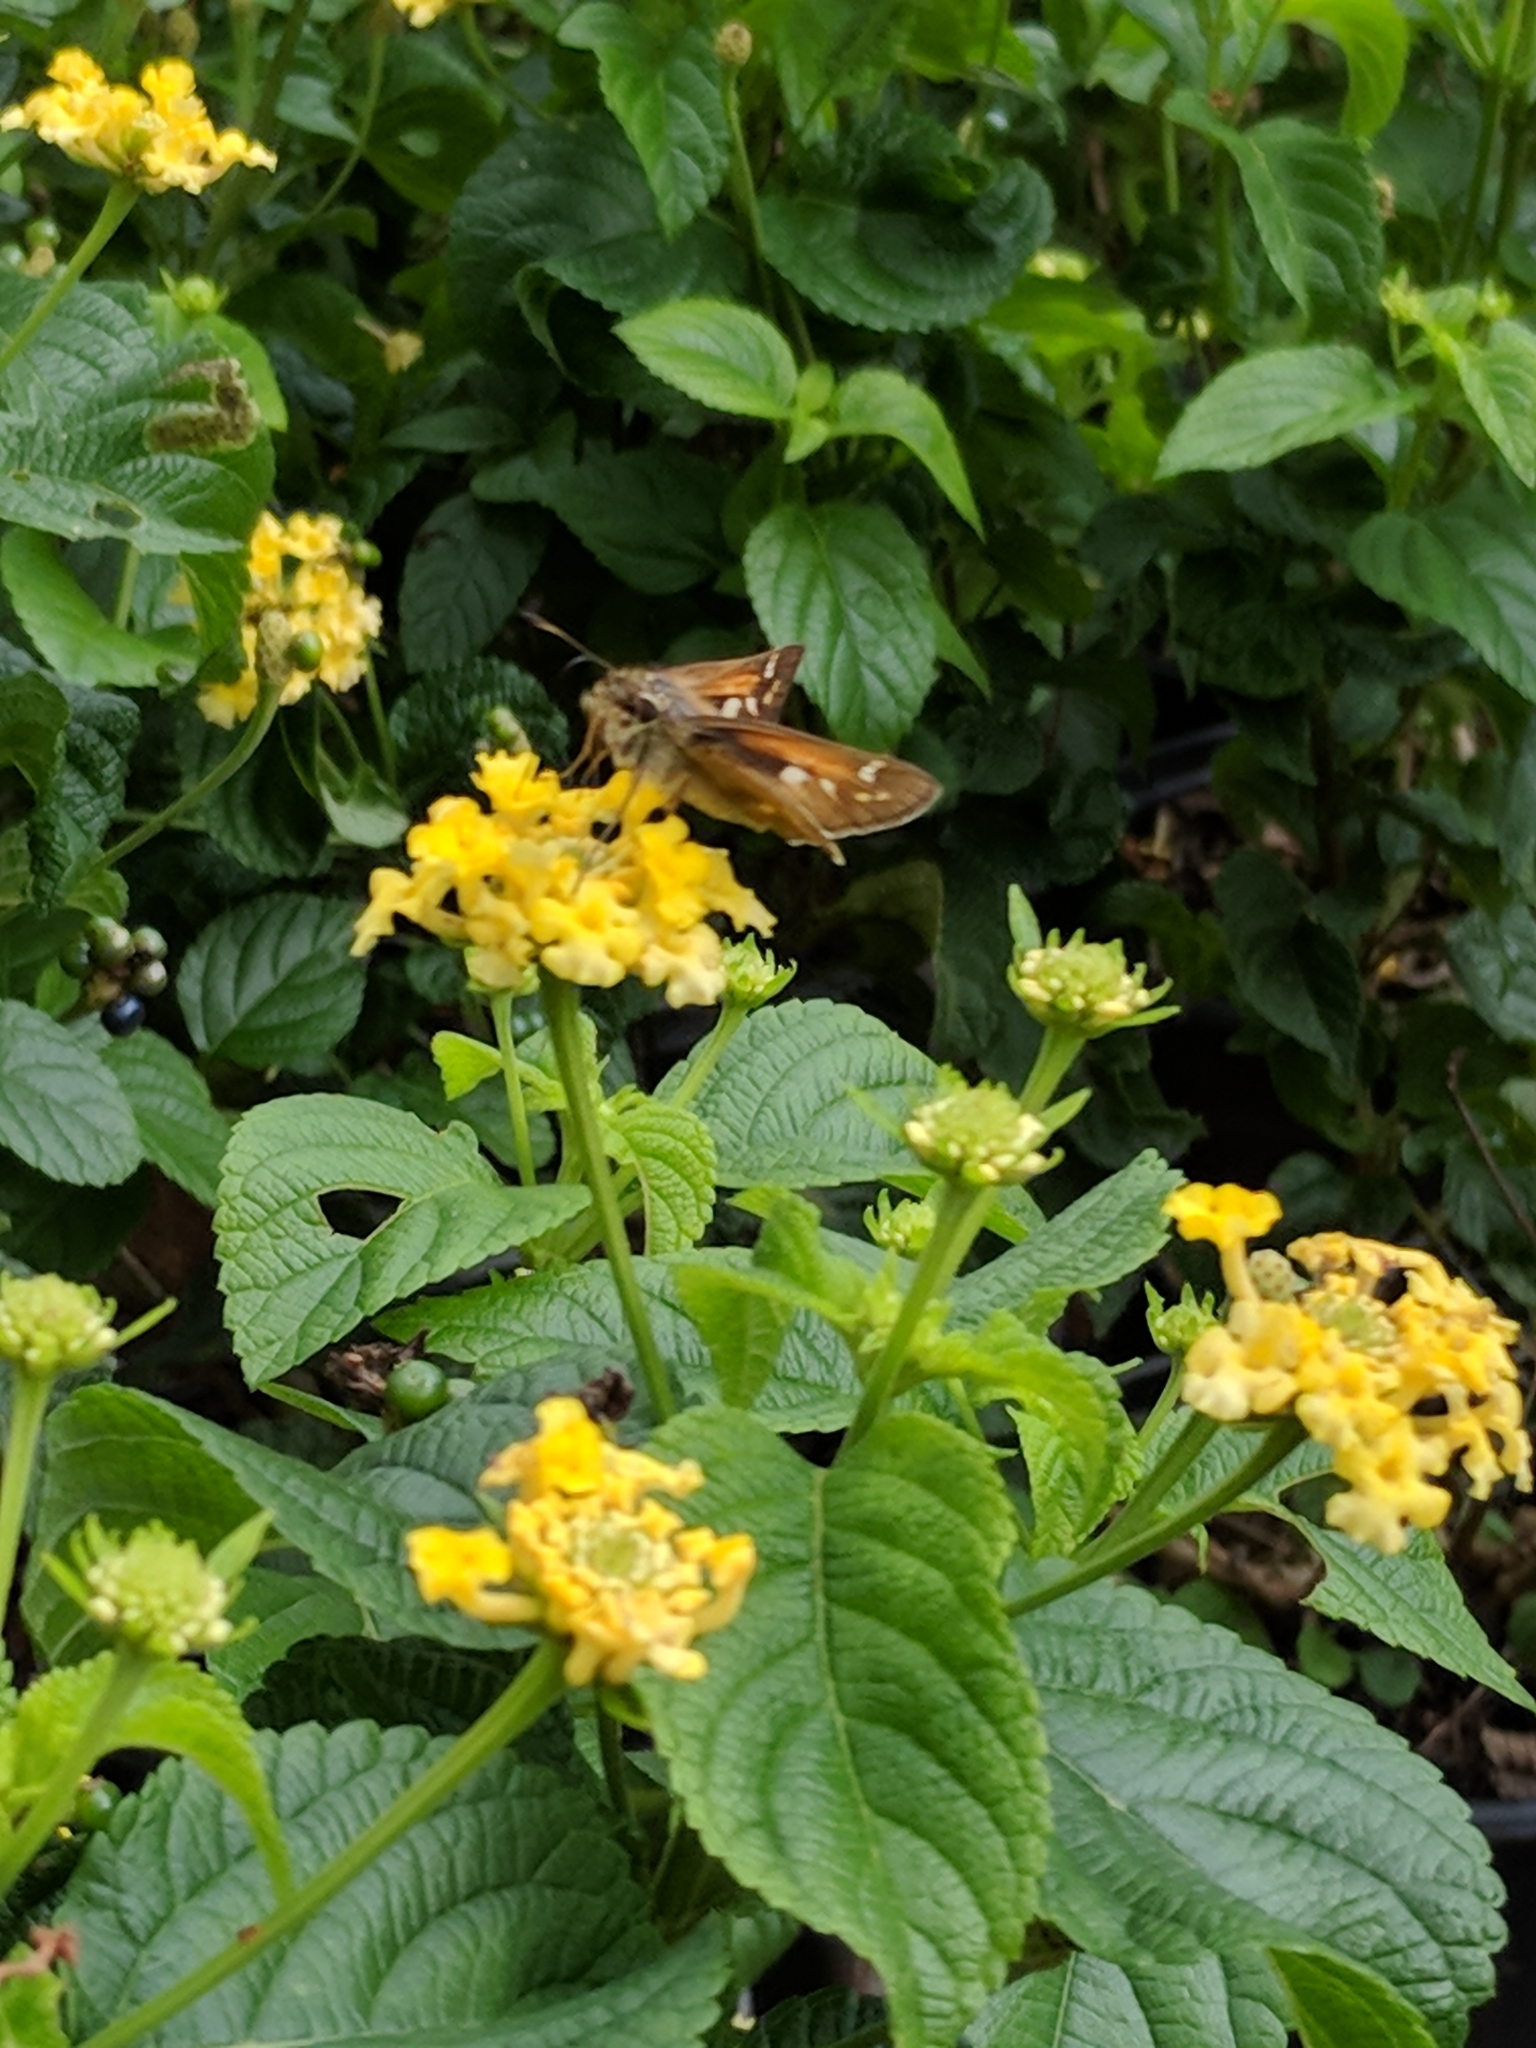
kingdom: Animalia
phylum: Arthropoda
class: Insecta
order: Lepidoptera
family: Hesperiidae
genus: Atalopedes
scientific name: Atalopedes
